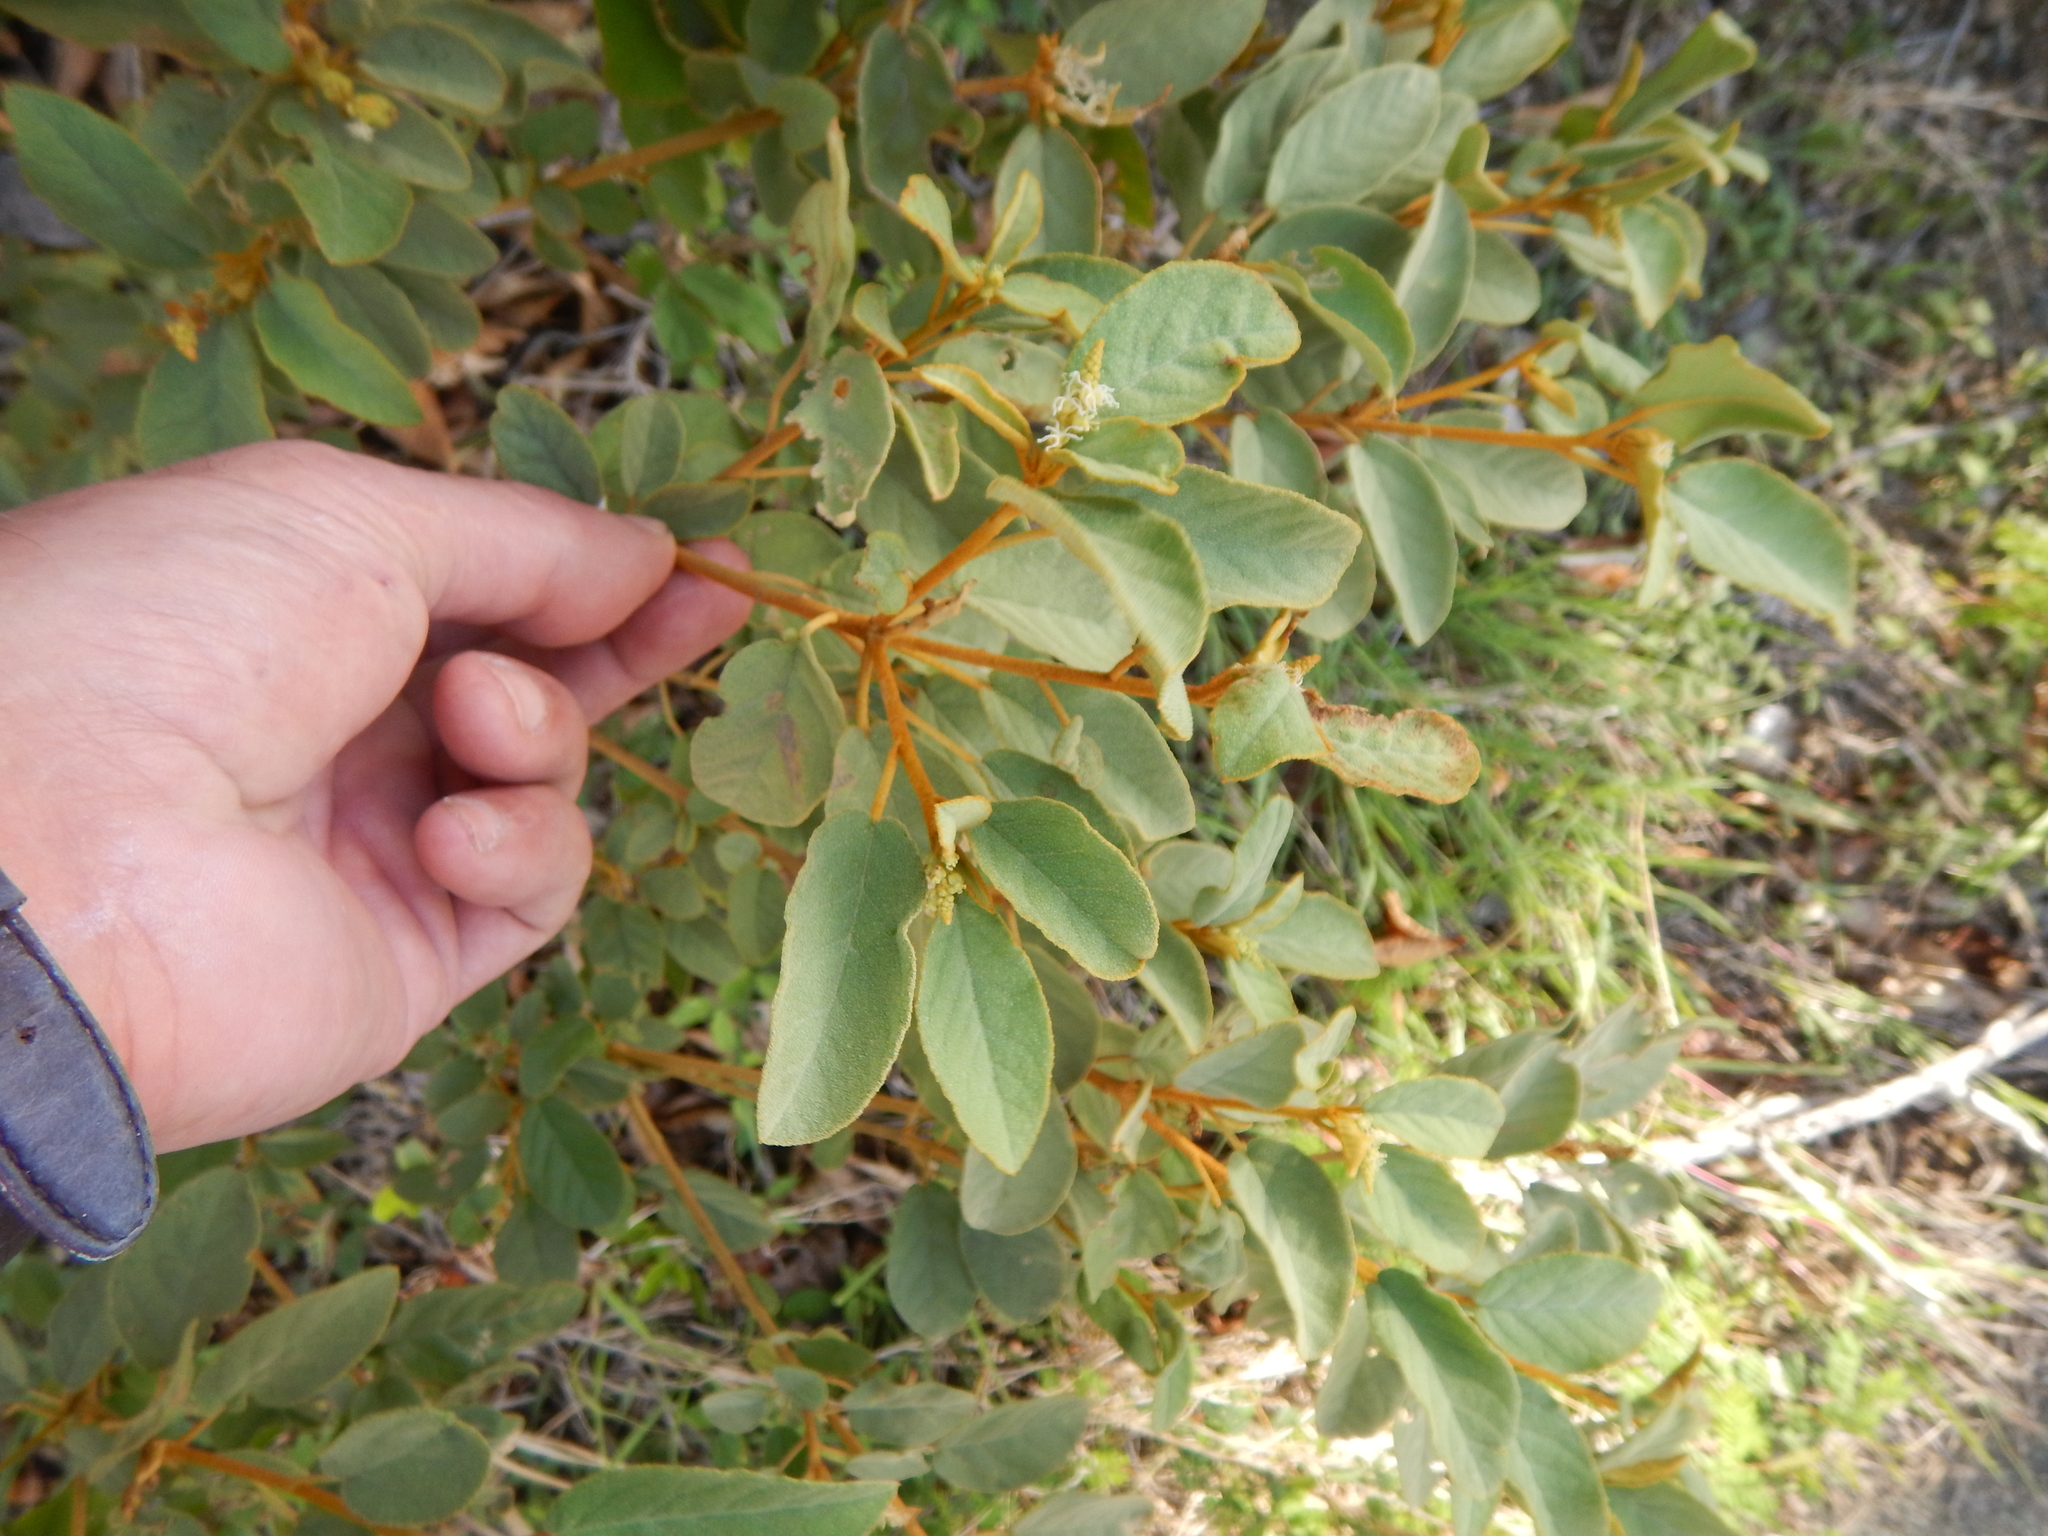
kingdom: Plantae
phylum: Tracheophyta
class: Magnoliopsida
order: Malpighiales
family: Euphorbiaceae
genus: Croton
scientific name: Croton flavens
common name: Yellow balsam
